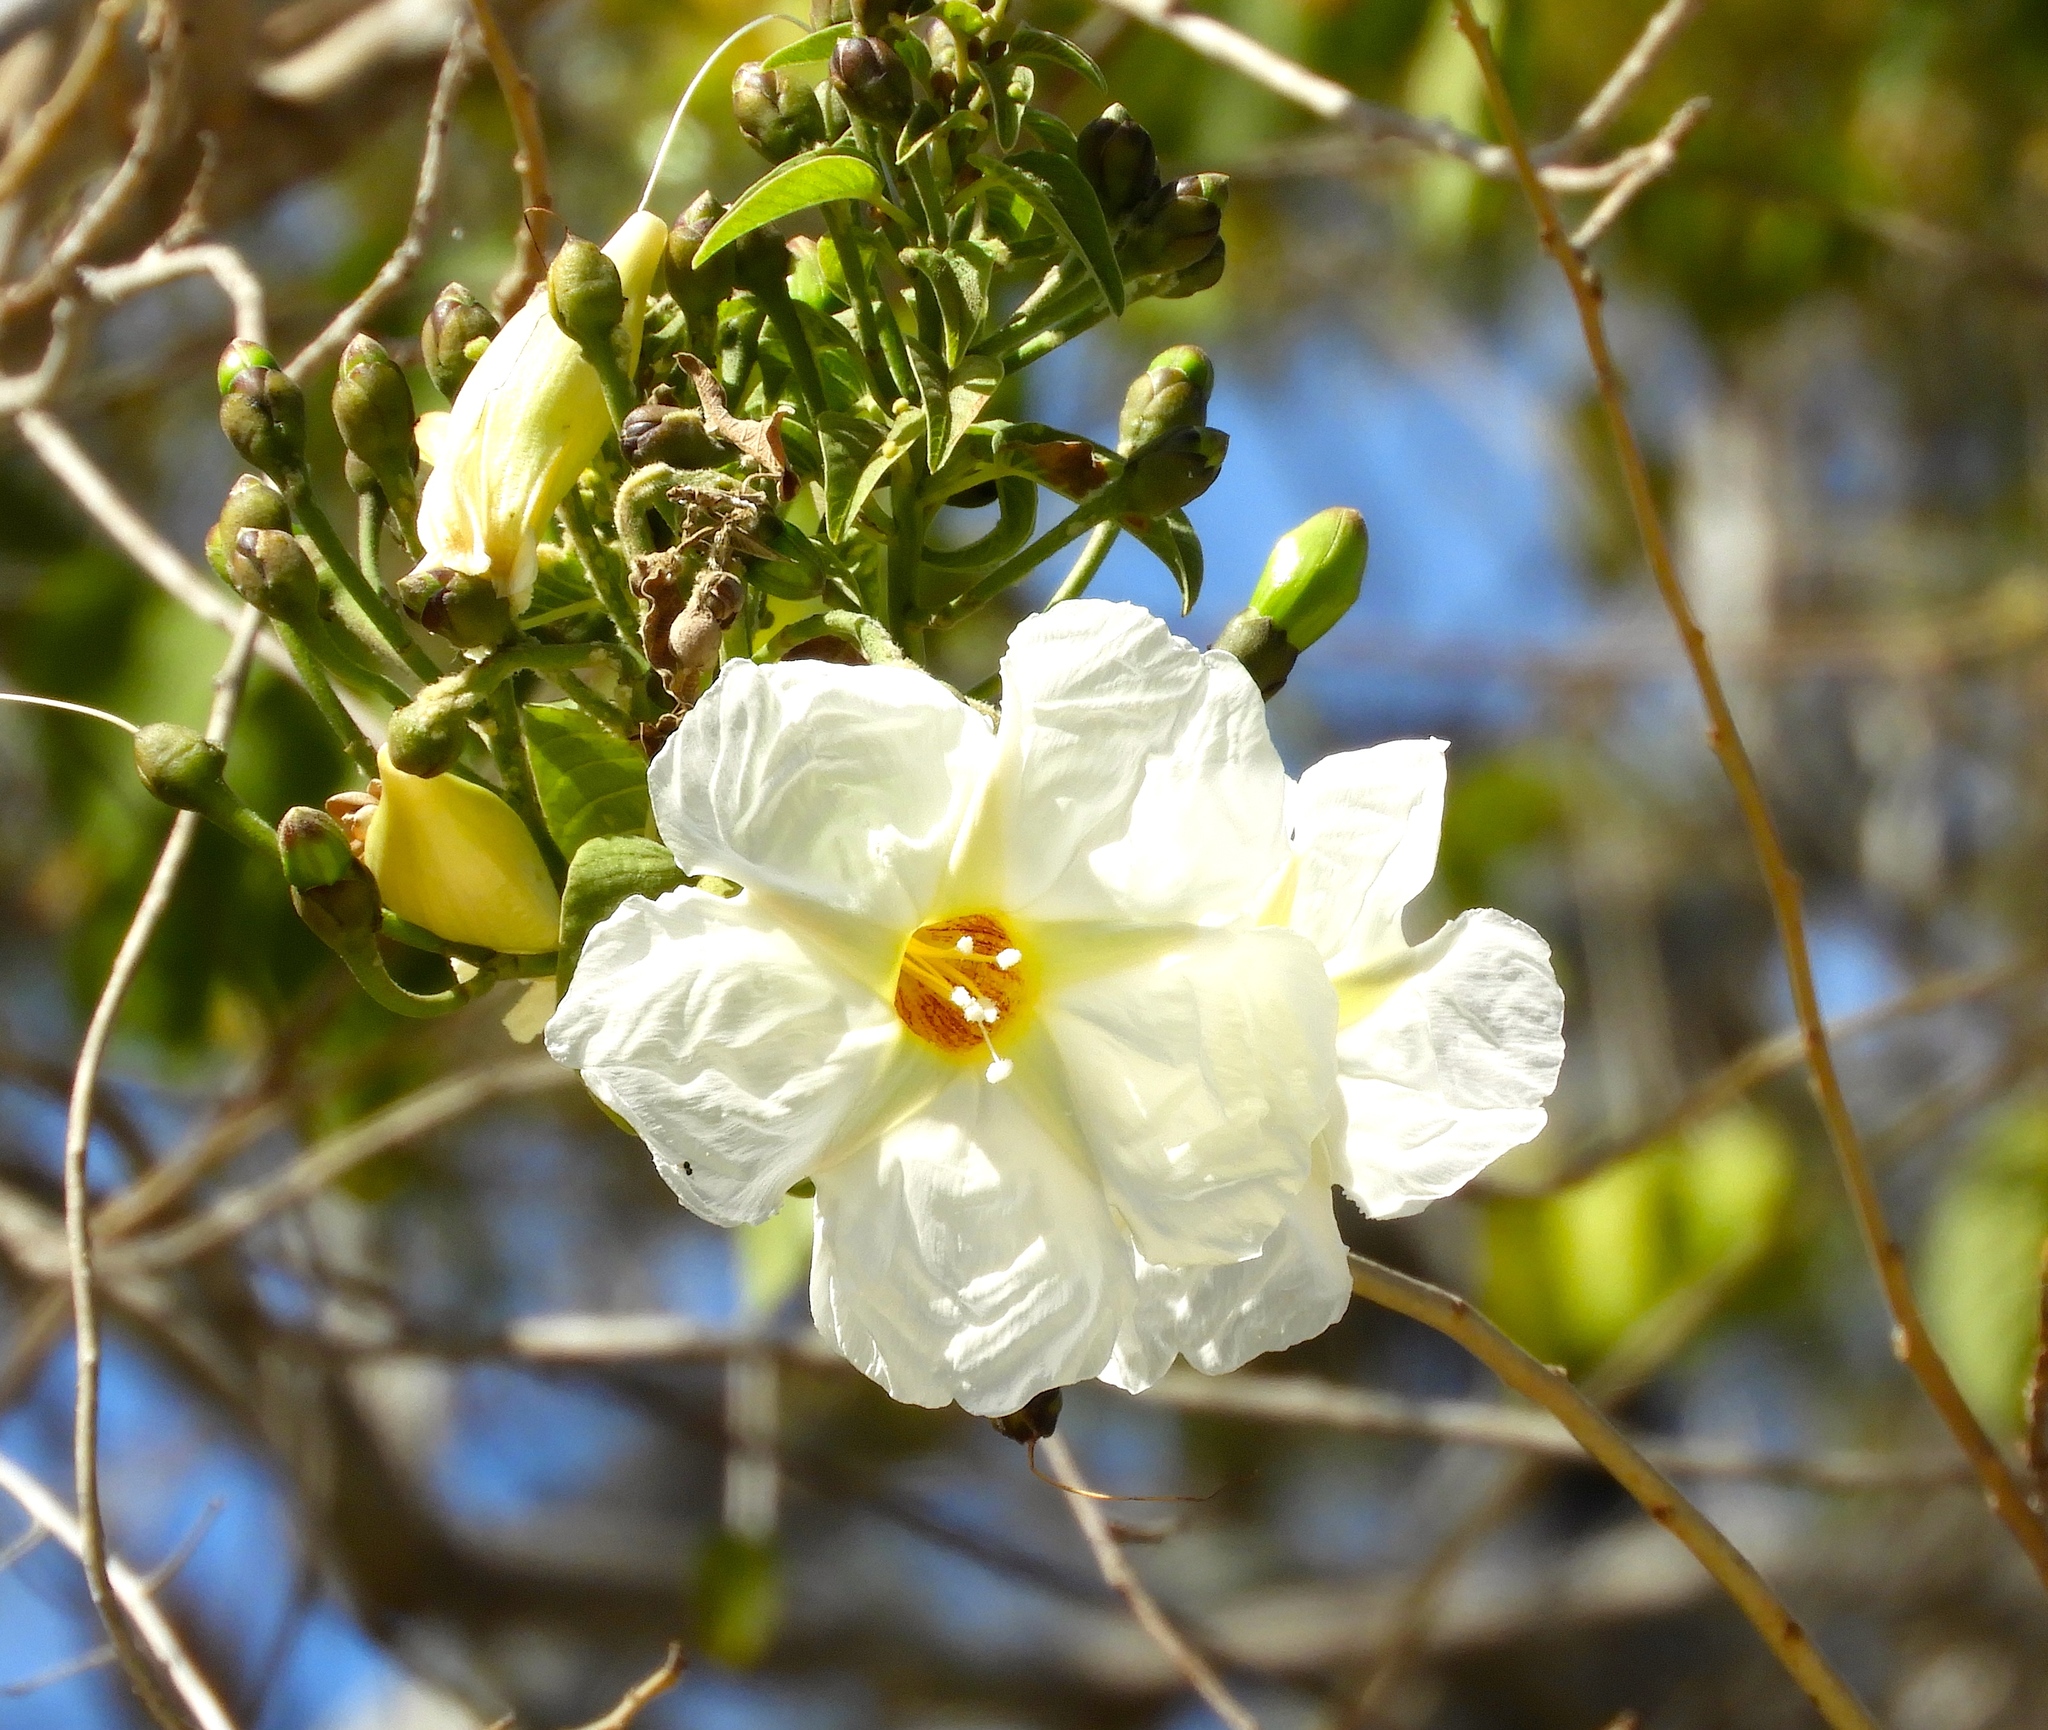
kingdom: Plantae
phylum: Tracheophyta
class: Magnoliopsida
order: Solanales
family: Convolvulaceae
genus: Ipomoea
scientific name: Ipomoea arborescens
